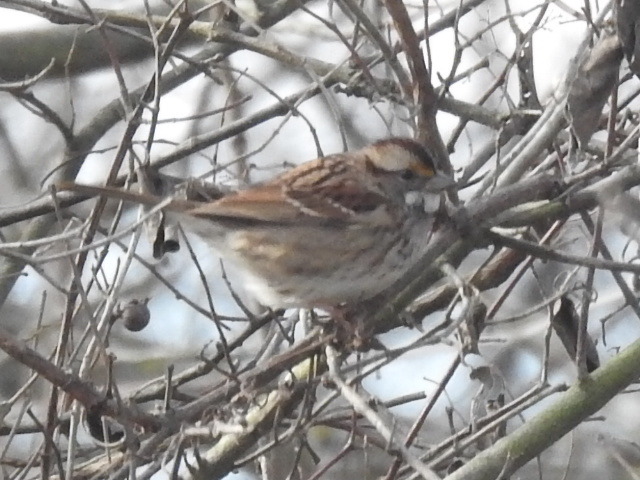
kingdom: Animalia
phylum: Chordata
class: Aves
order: Passeriformes
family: Passerellidae
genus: Zonotrichia
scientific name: Zonotrichia albicollis
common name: White-throated sparrow
